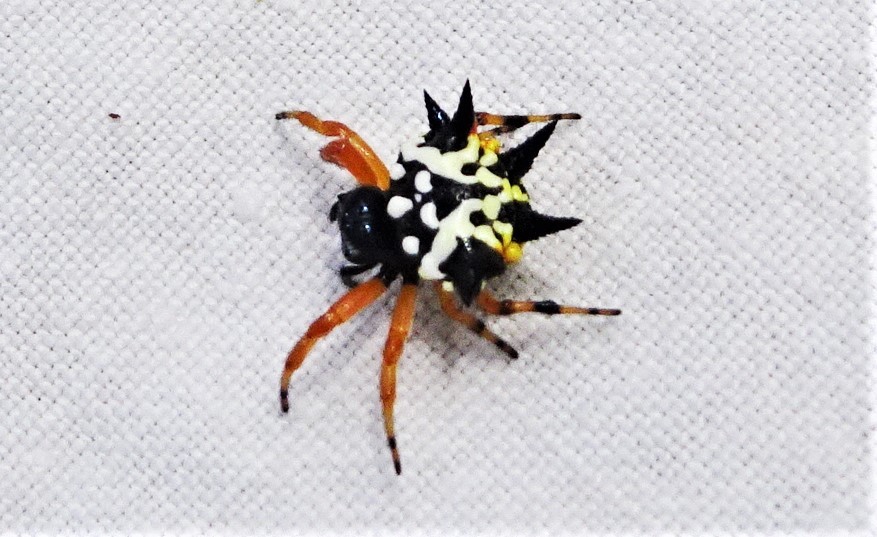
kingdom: Animalia
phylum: Arthropoda
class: Arachnida
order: Araneae
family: Araneidae
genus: Austracantha
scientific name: Austracantha minax
